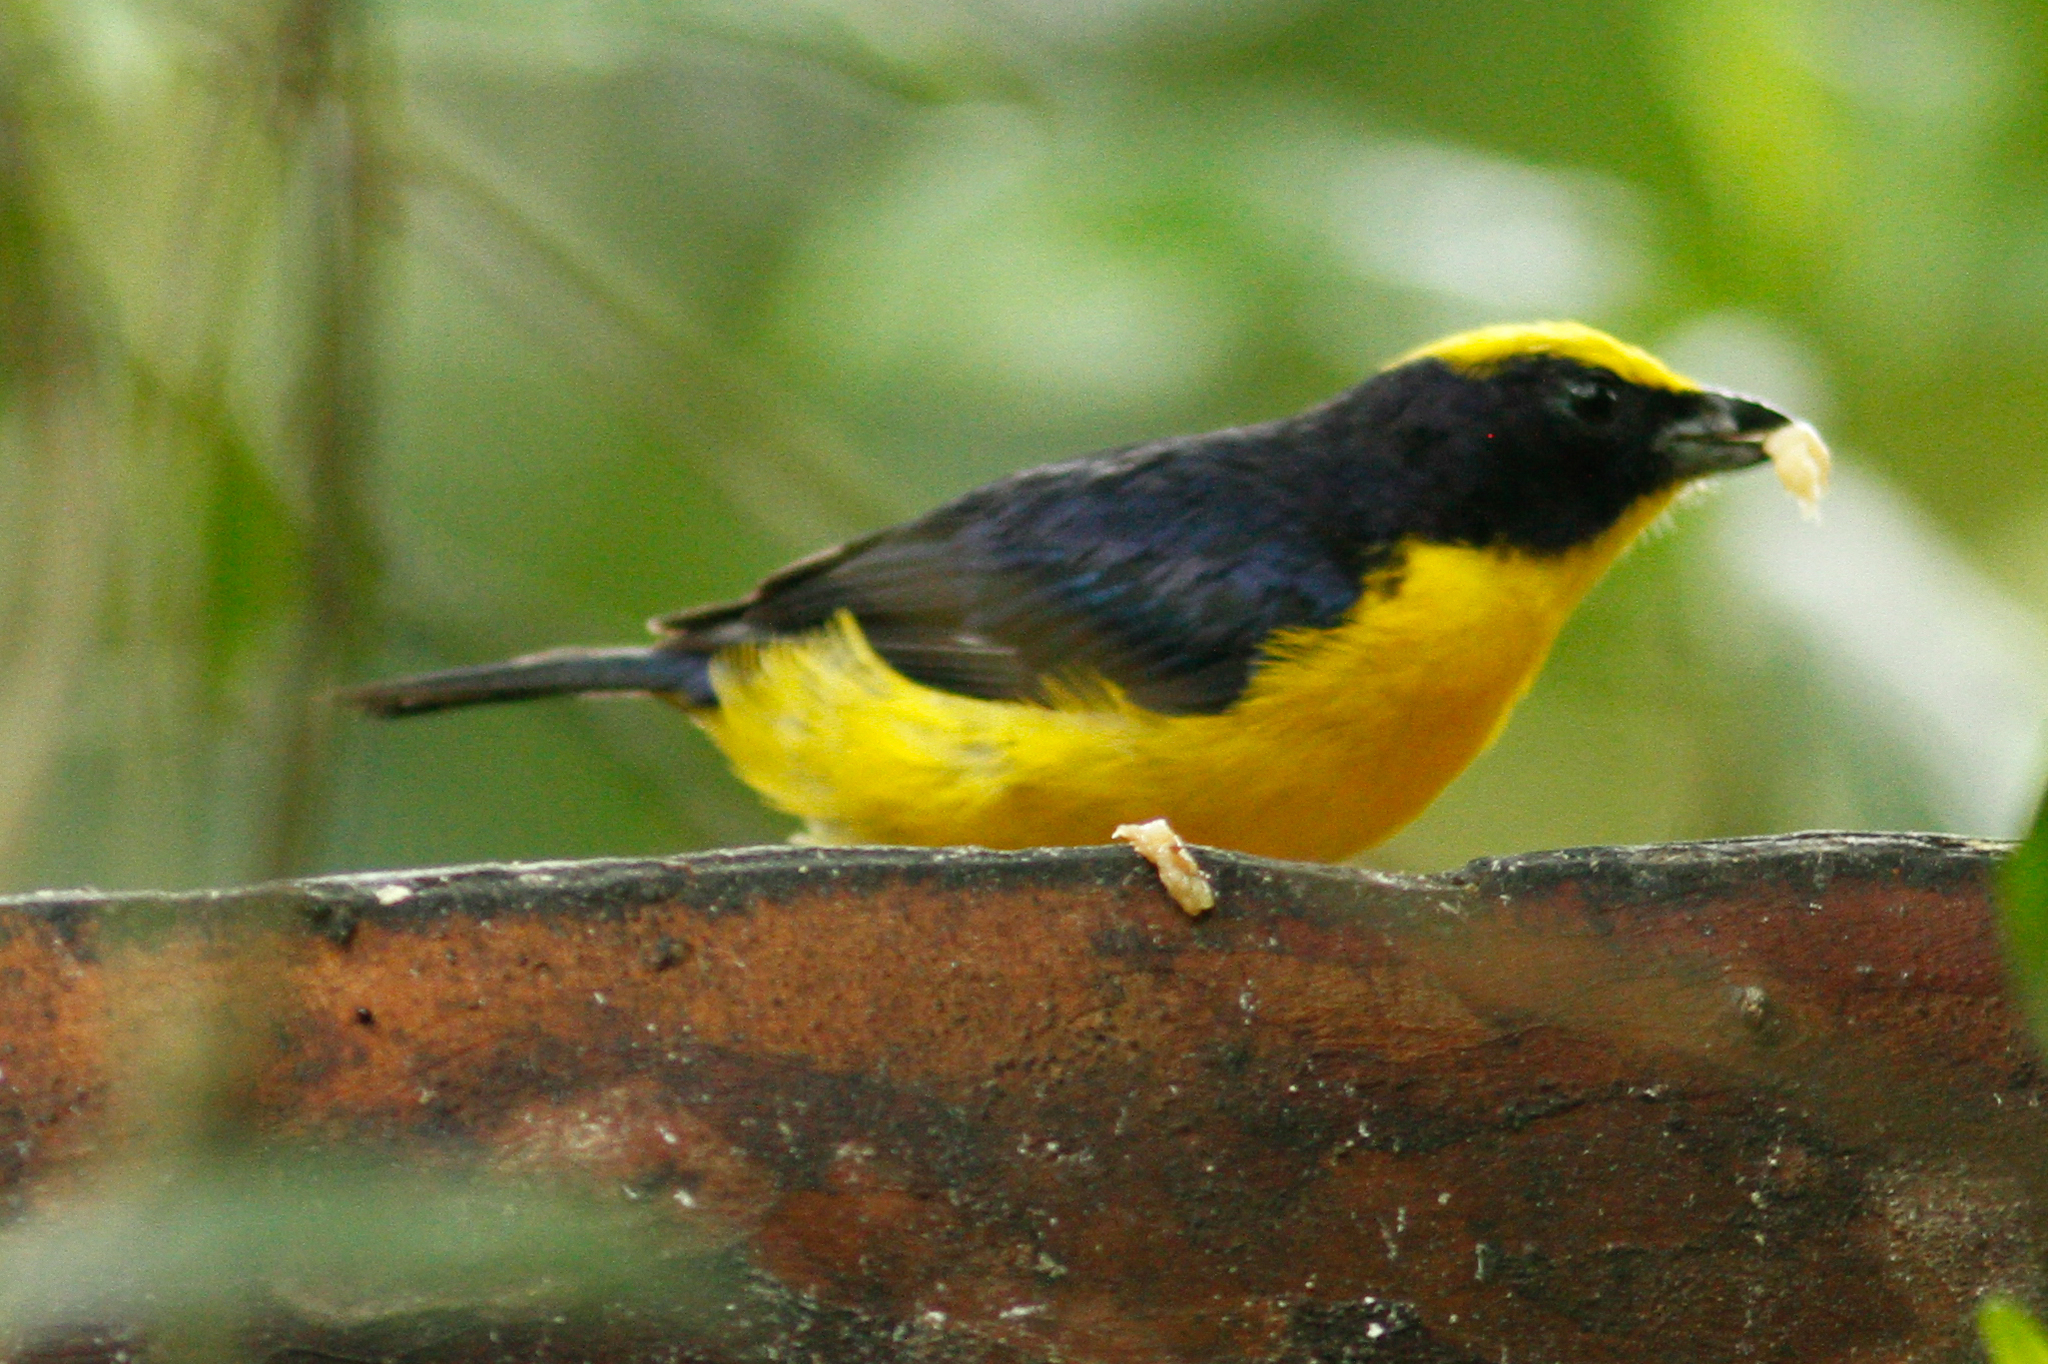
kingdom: Animalia
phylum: Chordata
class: Aves
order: Passeriformes
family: Fringillidae
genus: Euphonia
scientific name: Euphonia laniirostris
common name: Thick-billed euphonia
